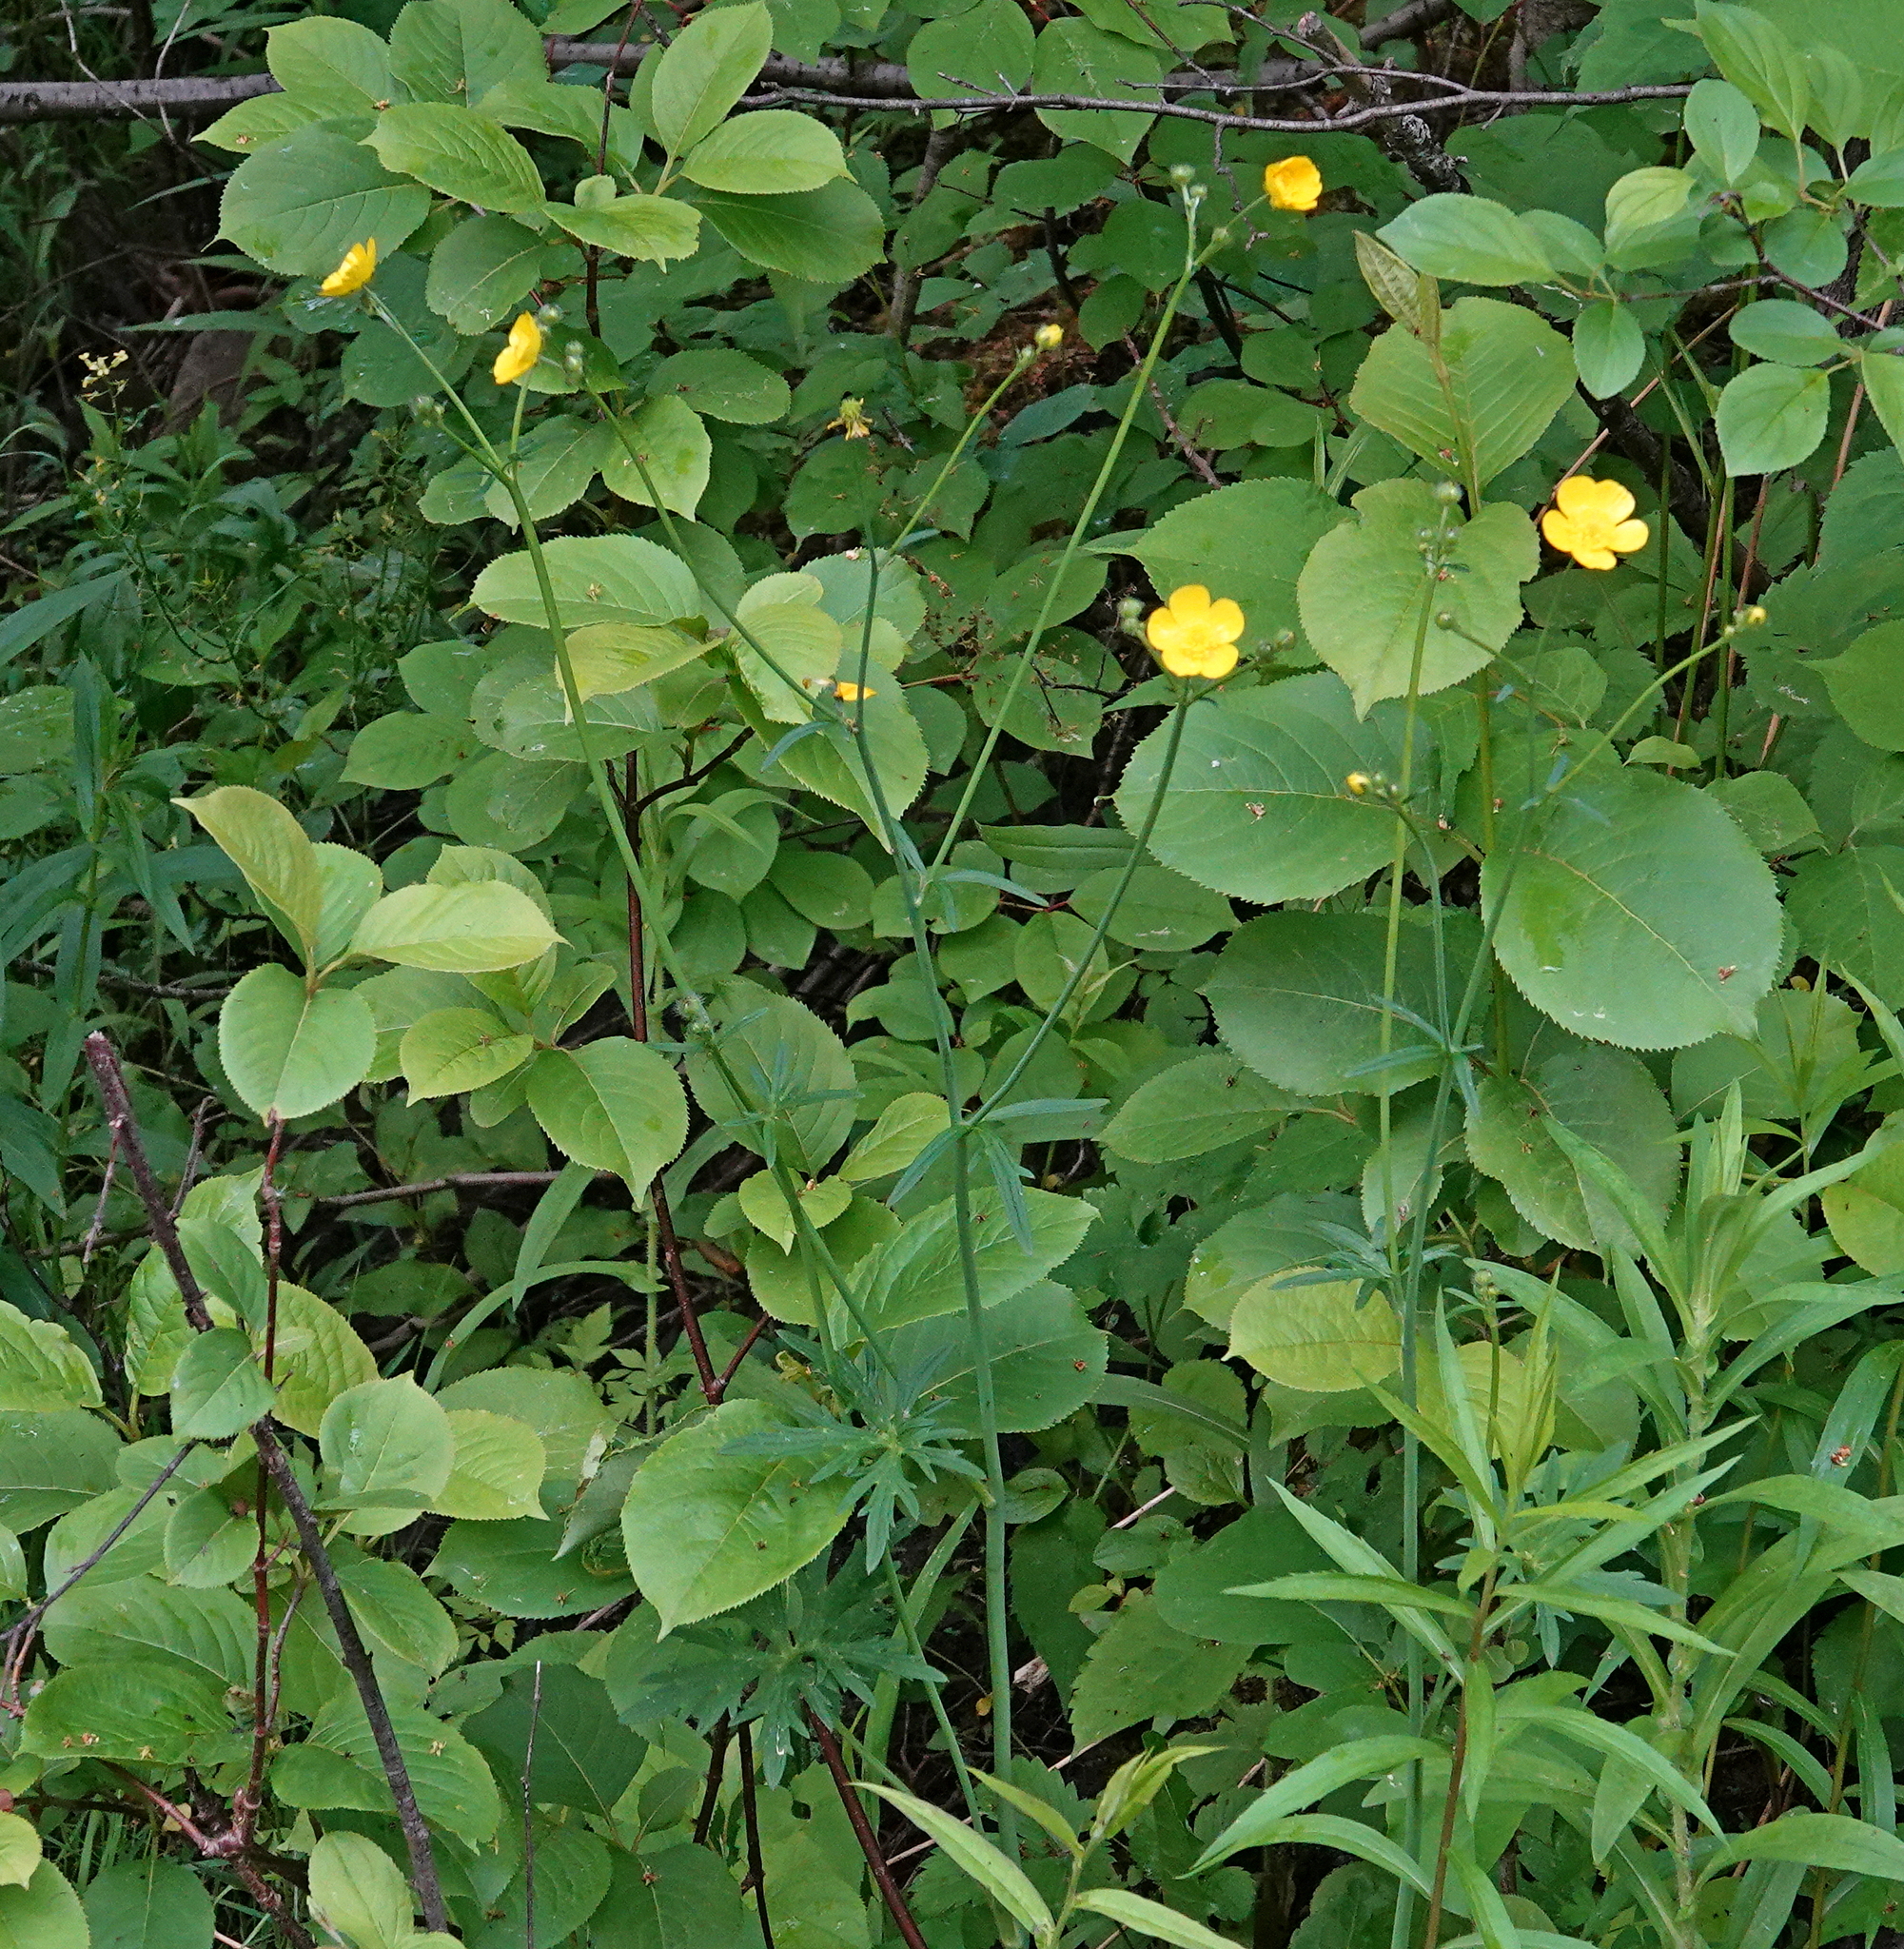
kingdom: Plantae
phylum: Tracheophyta
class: Magnoliopsida
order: Ranunculales
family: Ranunculaceae
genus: Ranunculus
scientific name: Ranunculus acris
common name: Meadow buttercup
